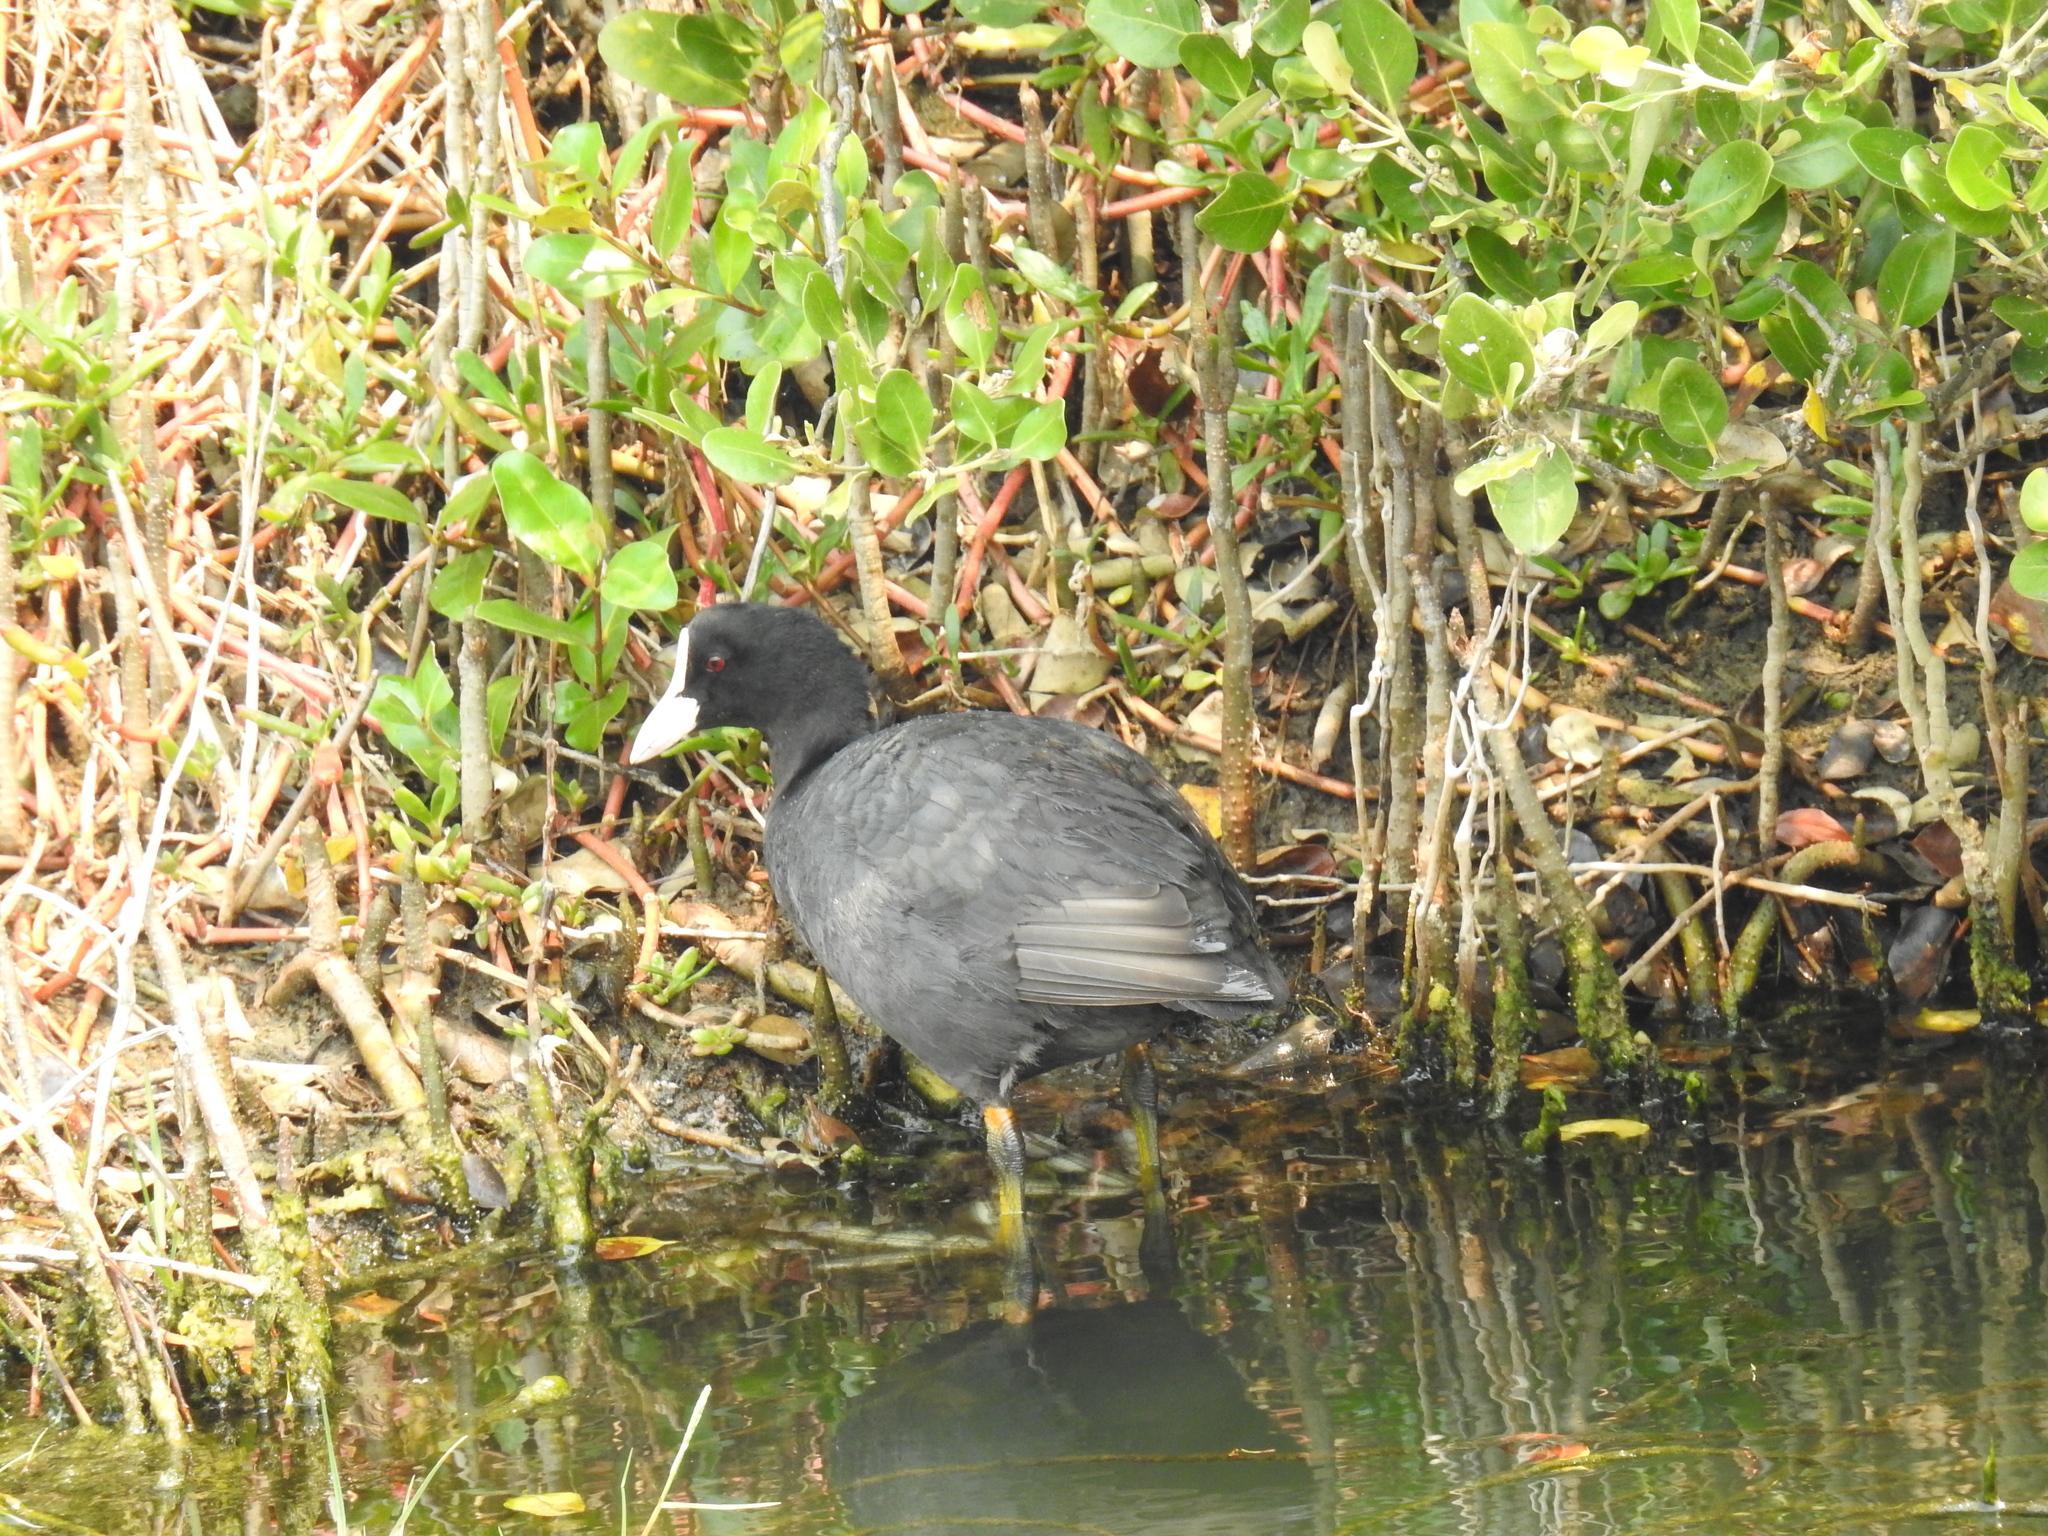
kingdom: Animalia
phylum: Chordata
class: Aves
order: Gruiformes
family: Rallidae
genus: Fulica
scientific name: Fulica atra
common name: Eurasian coot
